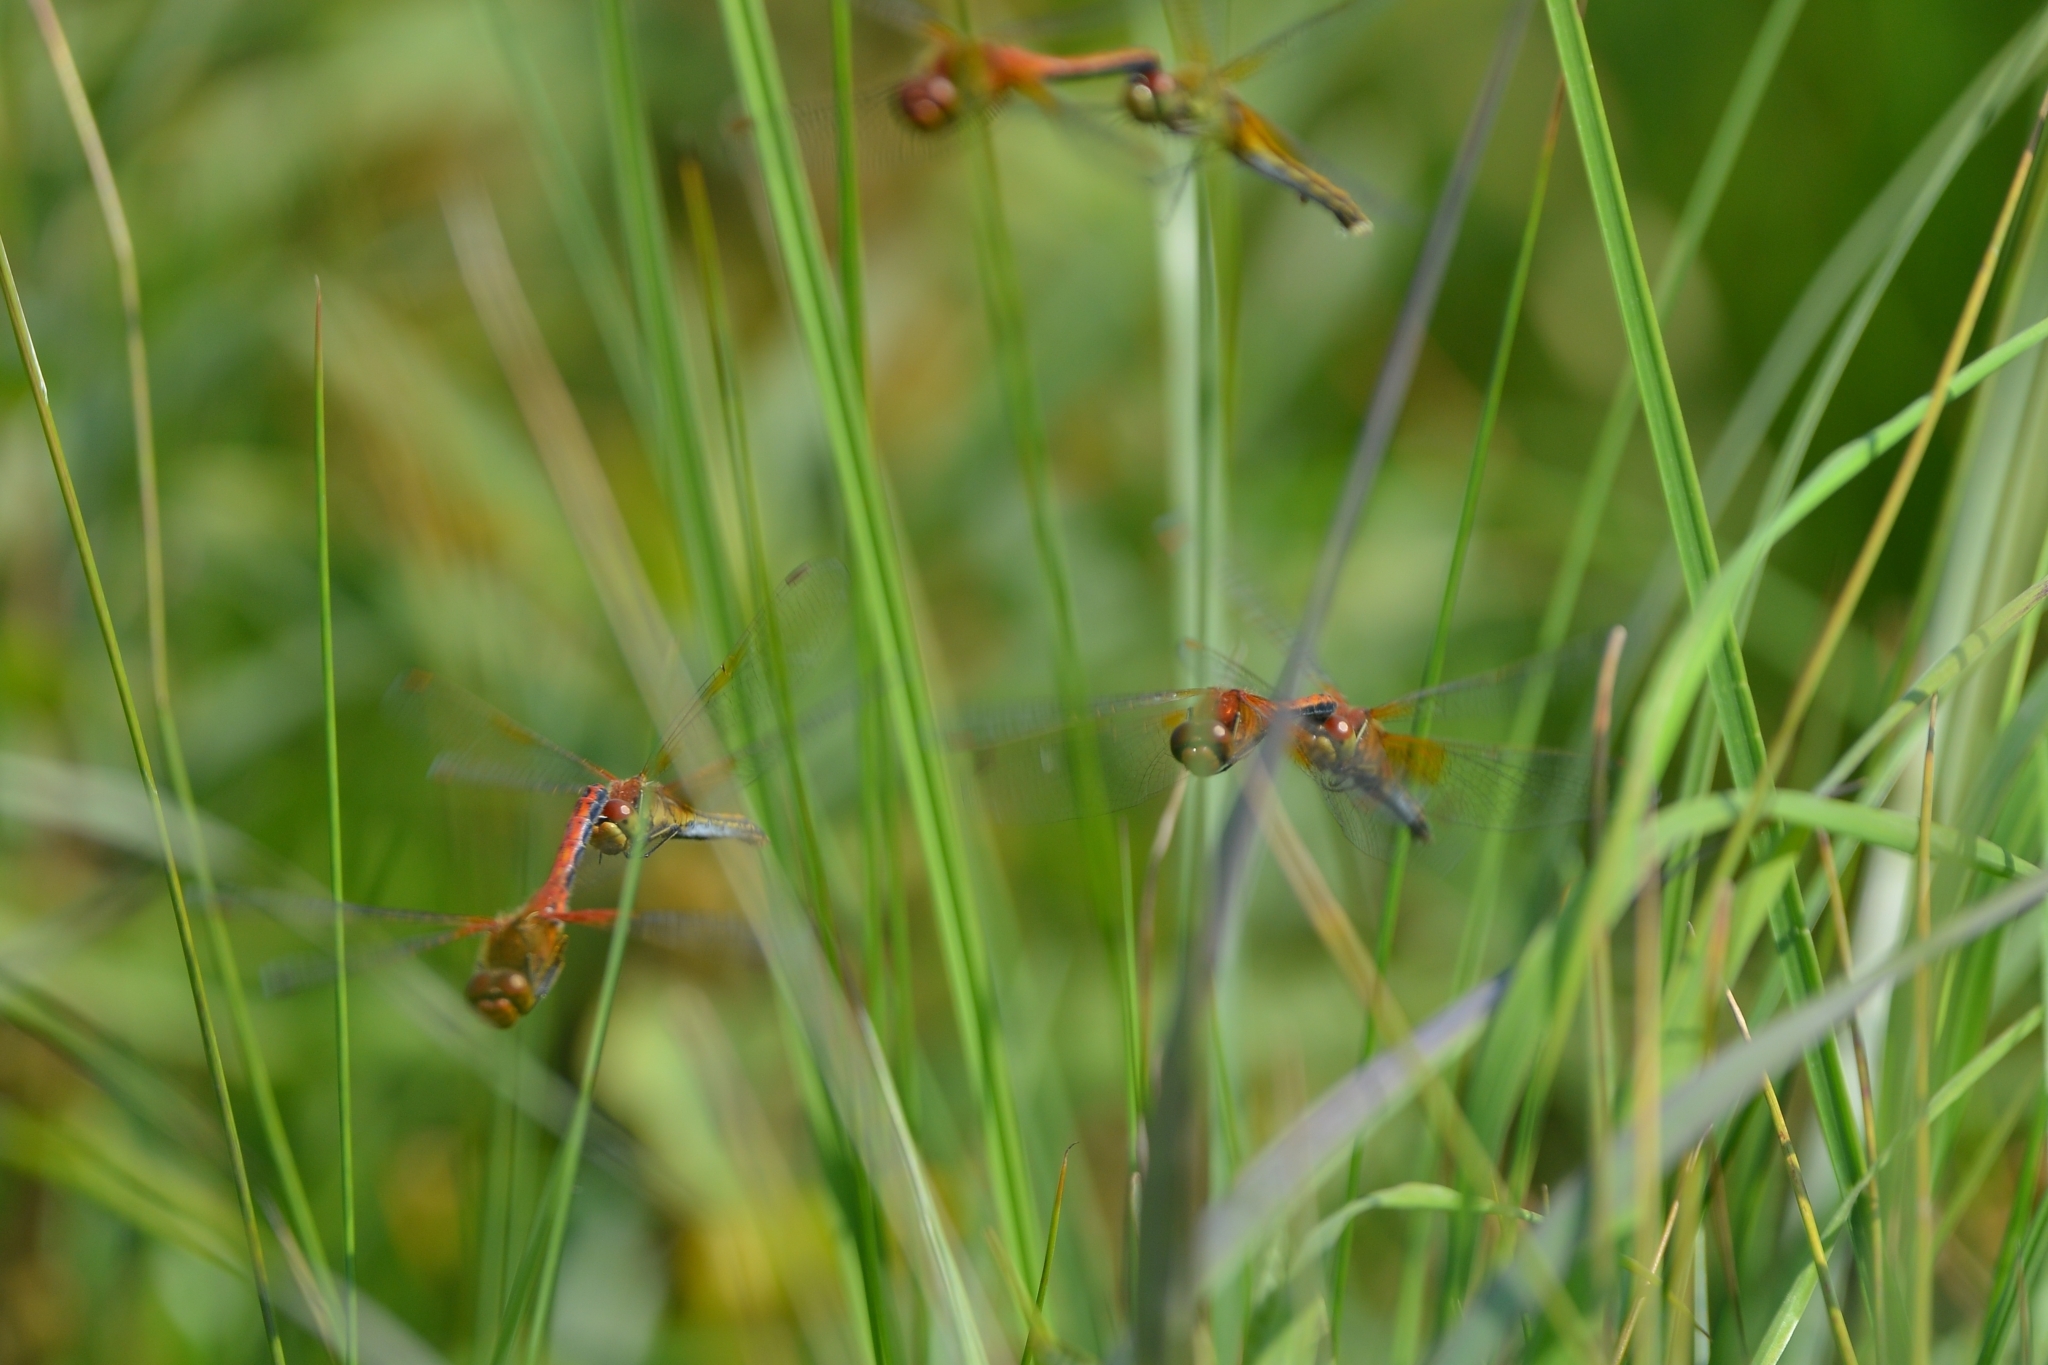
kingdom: Animalia
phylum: Arthropoda
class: Insecta
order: Odonata
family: Libellulidae
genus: Sympetrum
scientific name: Sympetrum flaveolum
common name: Yellow-winged darter
